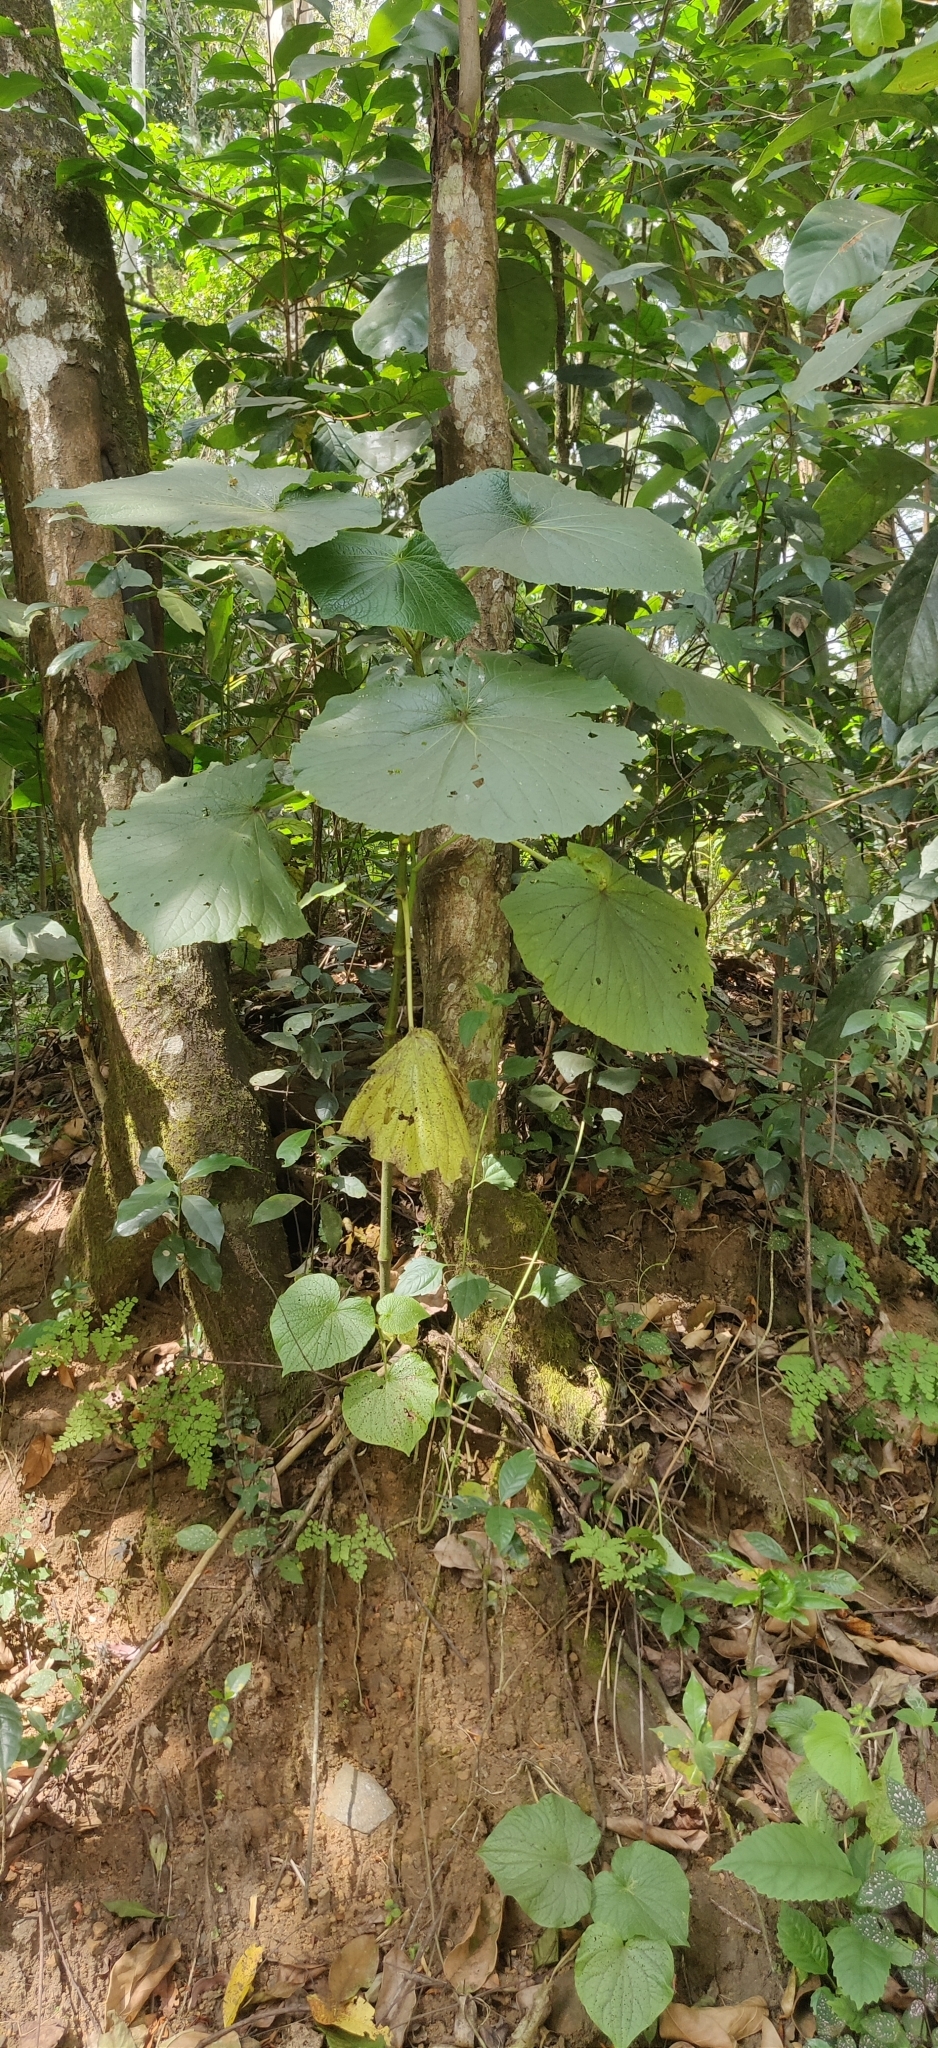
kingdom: Plantae
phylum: Tracheophyta
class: Magnoliopsida
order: Piperales
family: Piperaceae
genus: Piper
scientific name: Piper umbellatum
